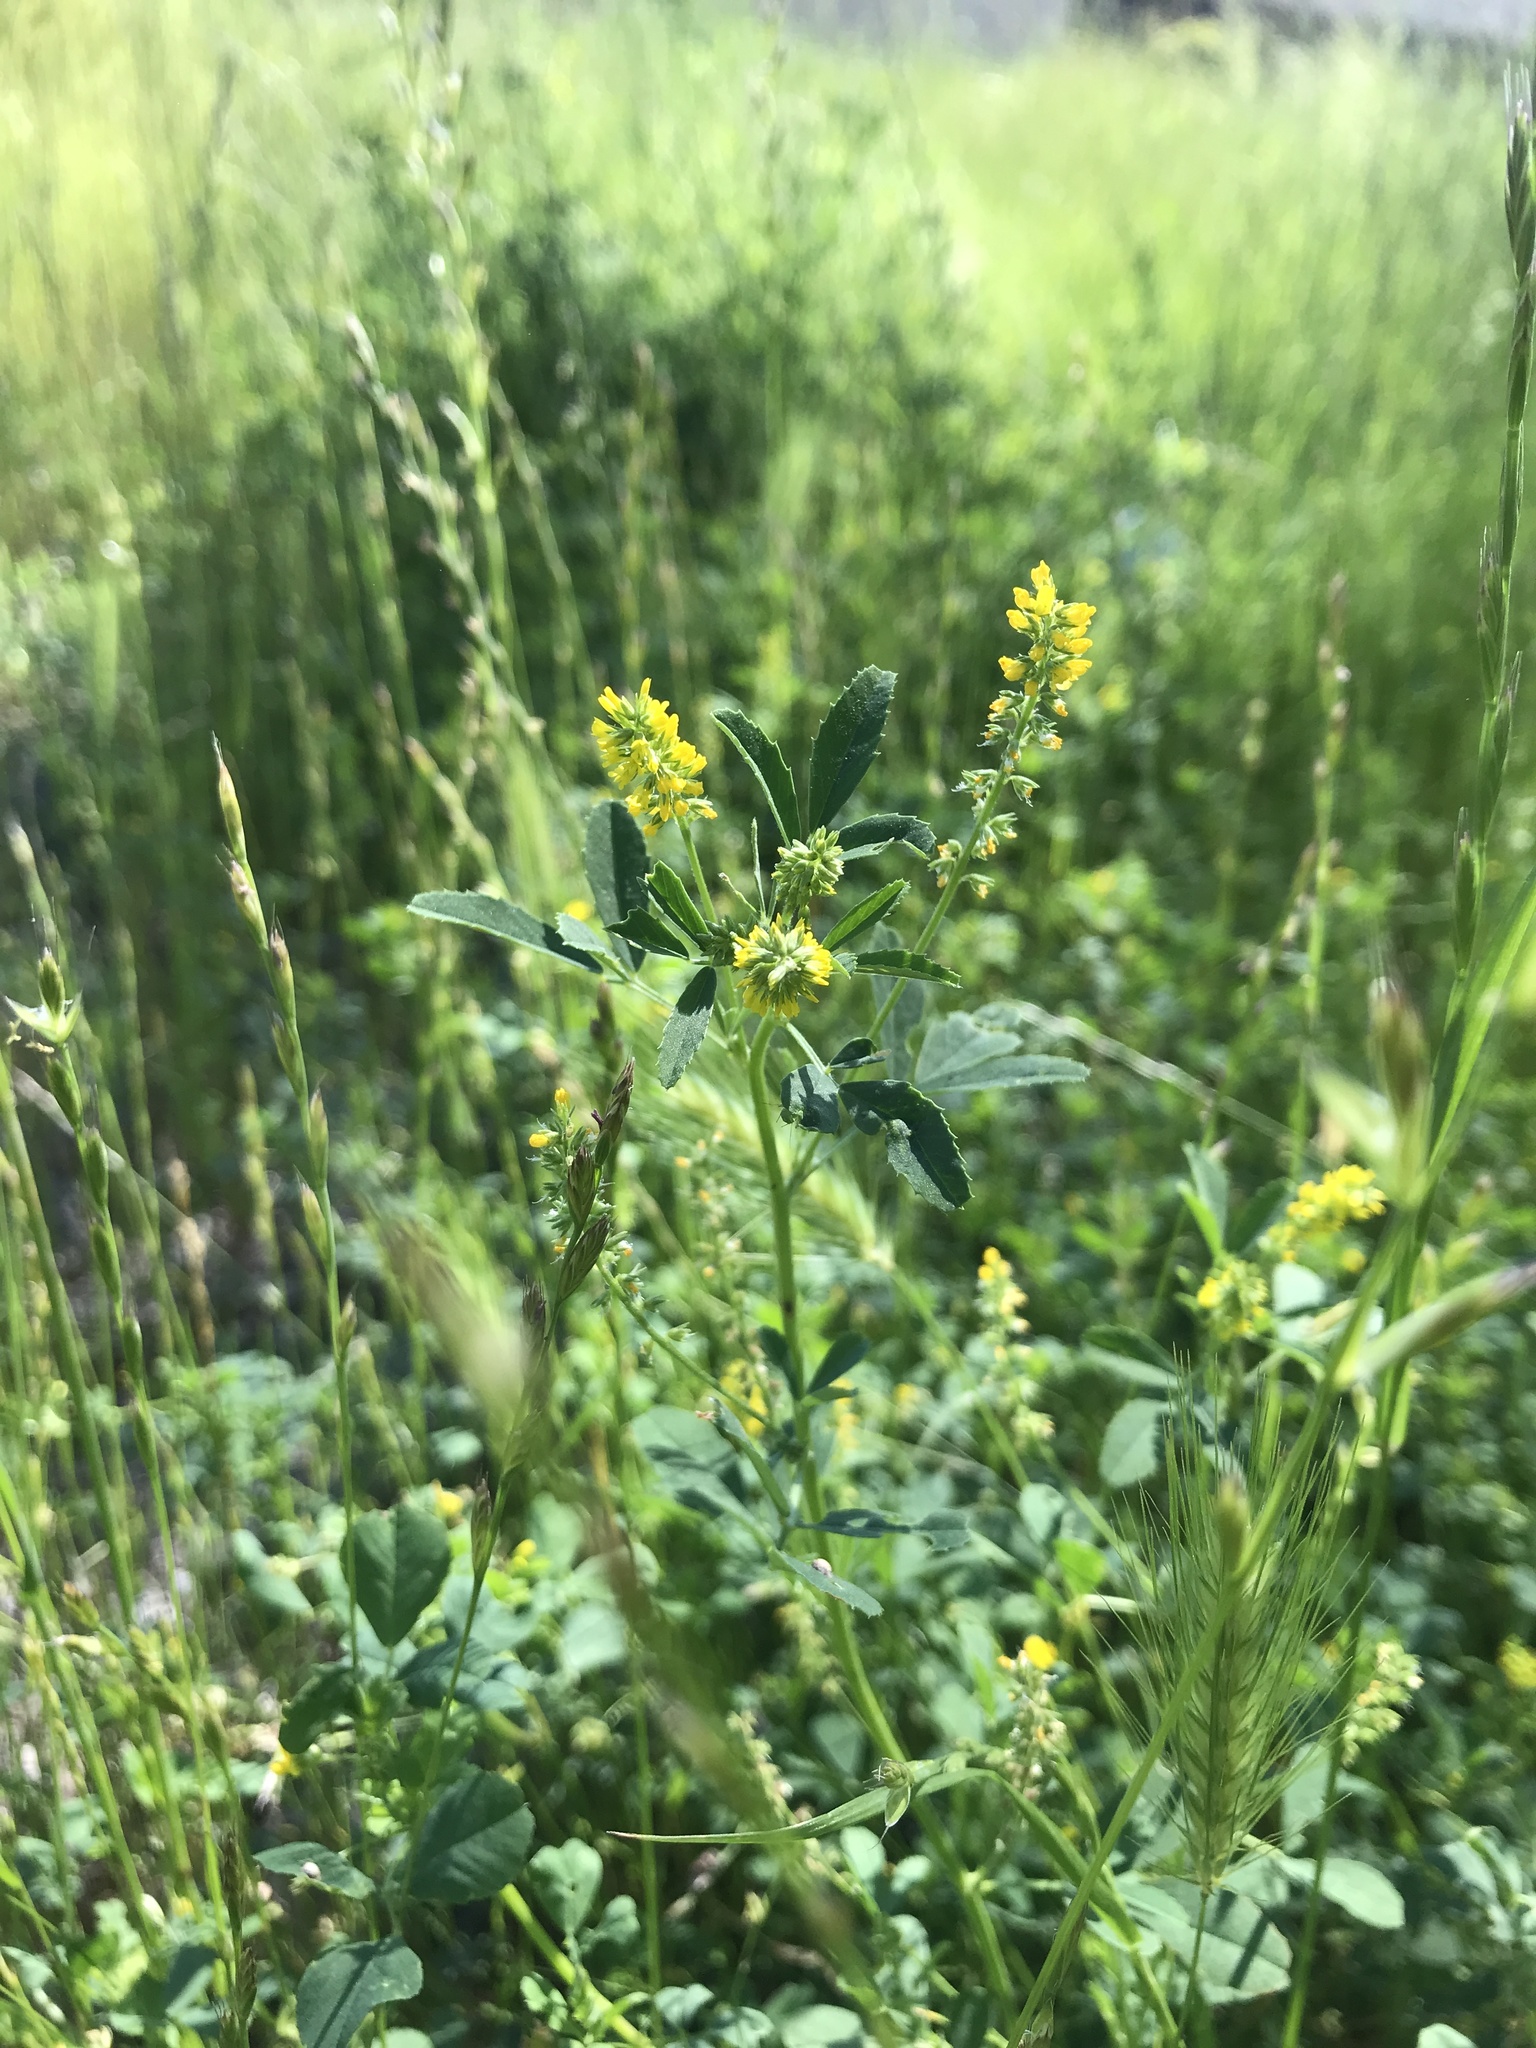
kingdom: Plantae
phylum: Tracheophyta
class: Magnoliopsida
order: Fabales
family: Fabaceae
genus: Melilotus
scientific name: Melilotus indicus
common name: Small melilot
